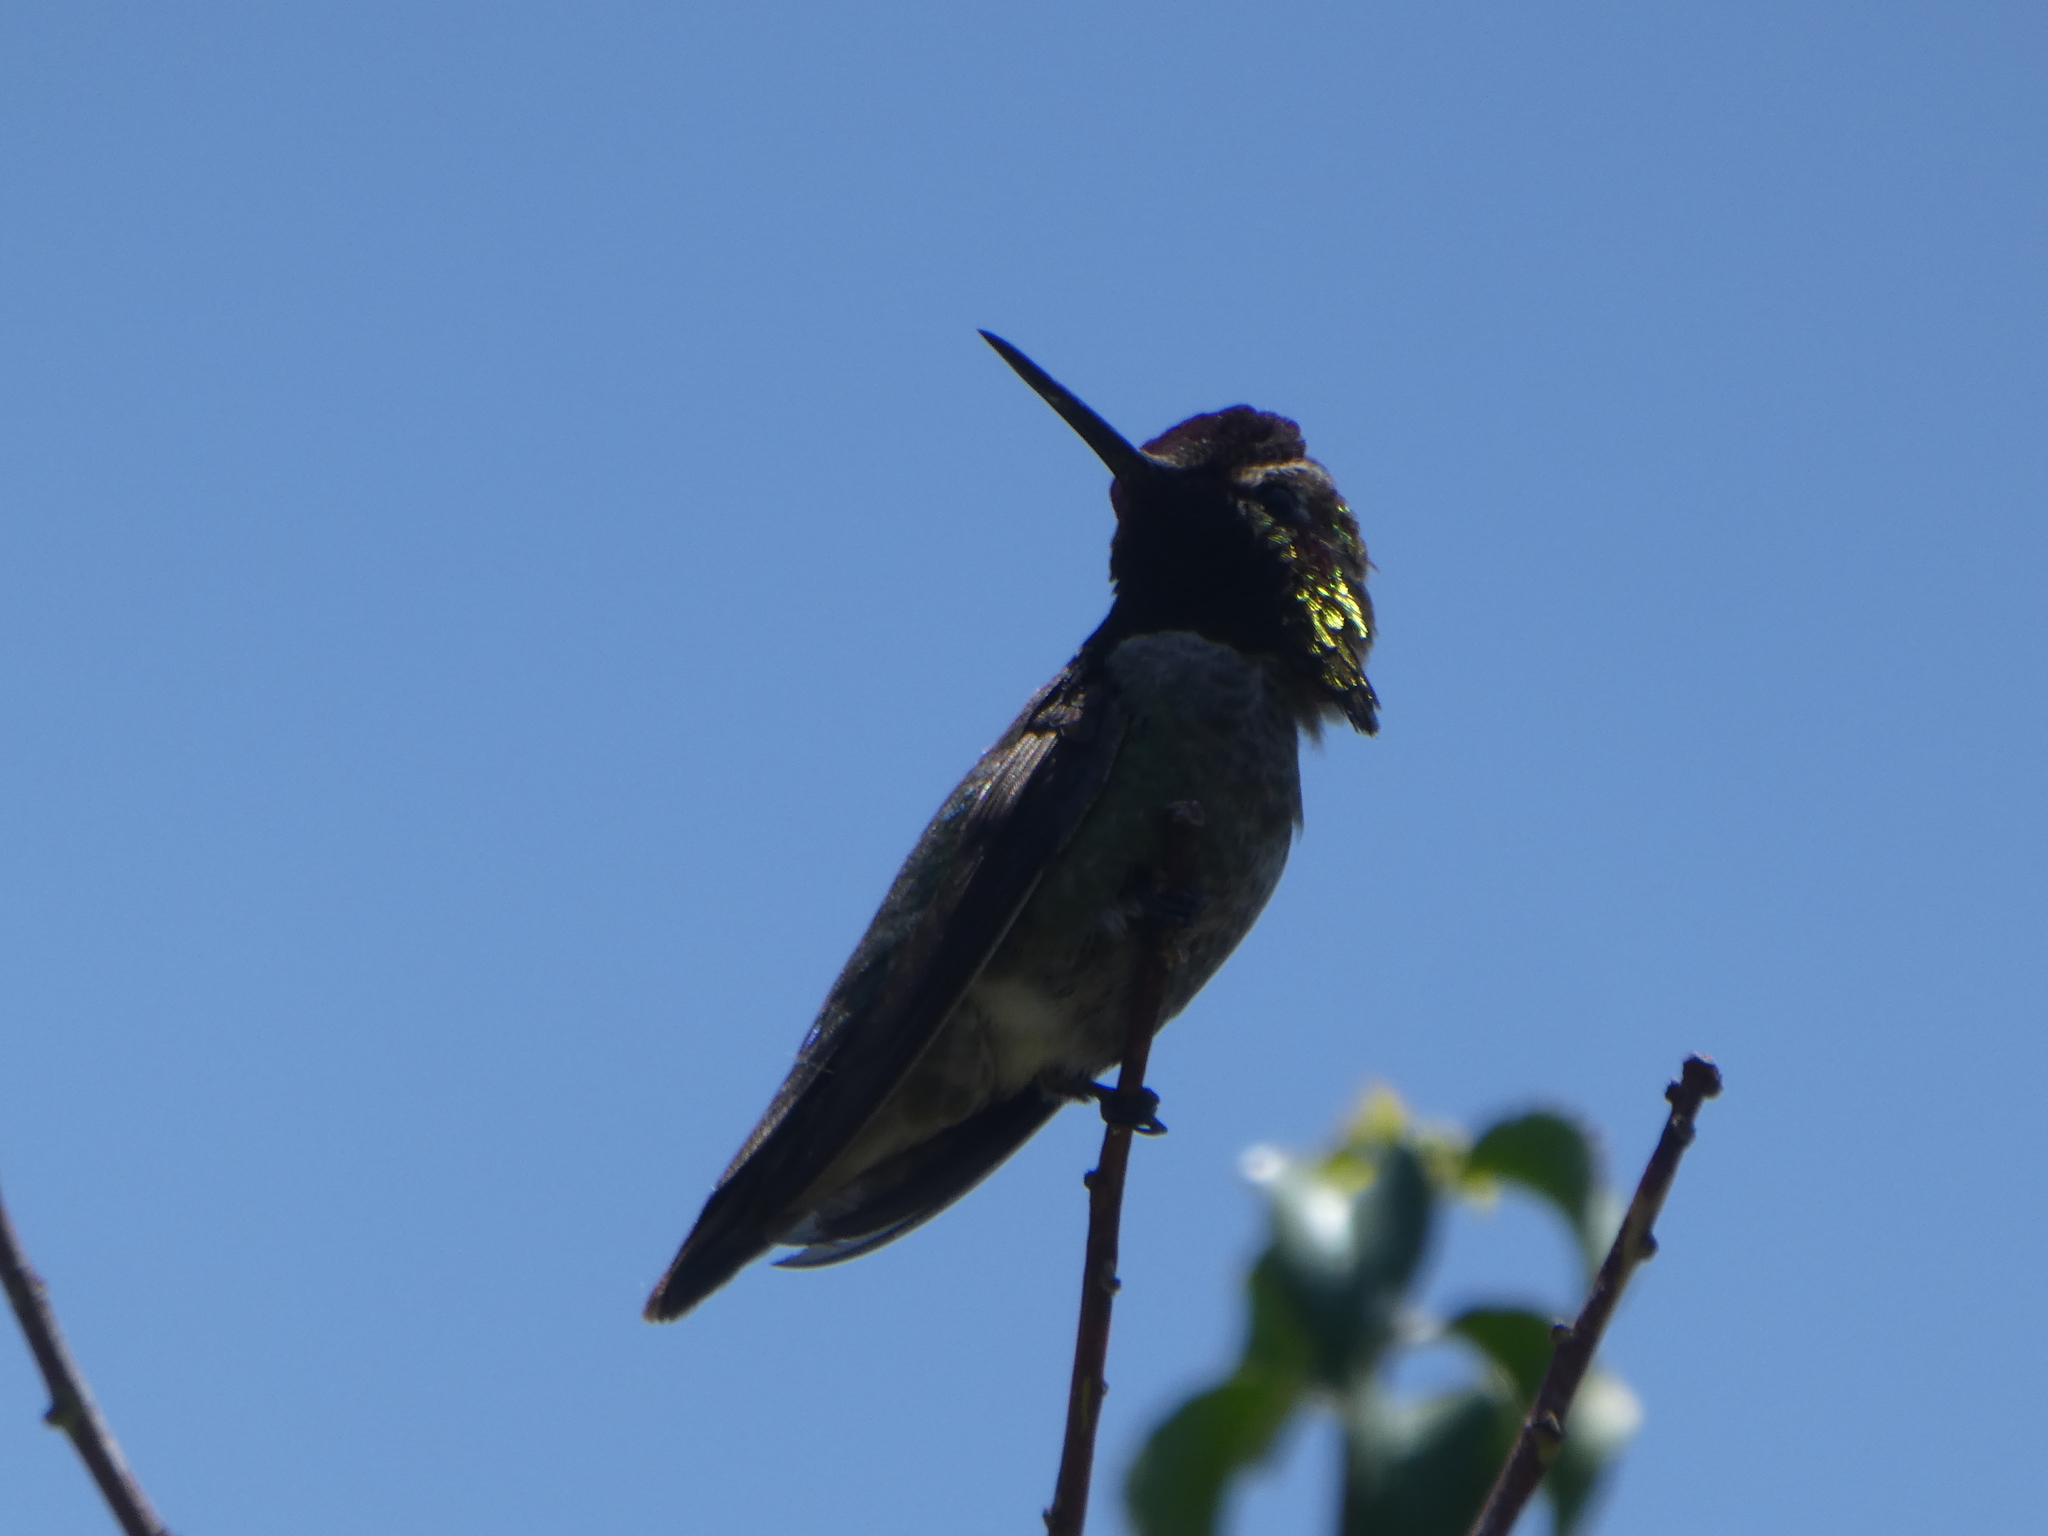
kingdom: Animalia
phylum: Chordata
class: Aves
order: Apodiformes
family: Trochilidae
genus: Calypte
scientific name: Calypte anna
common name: Anna's hummingbird
